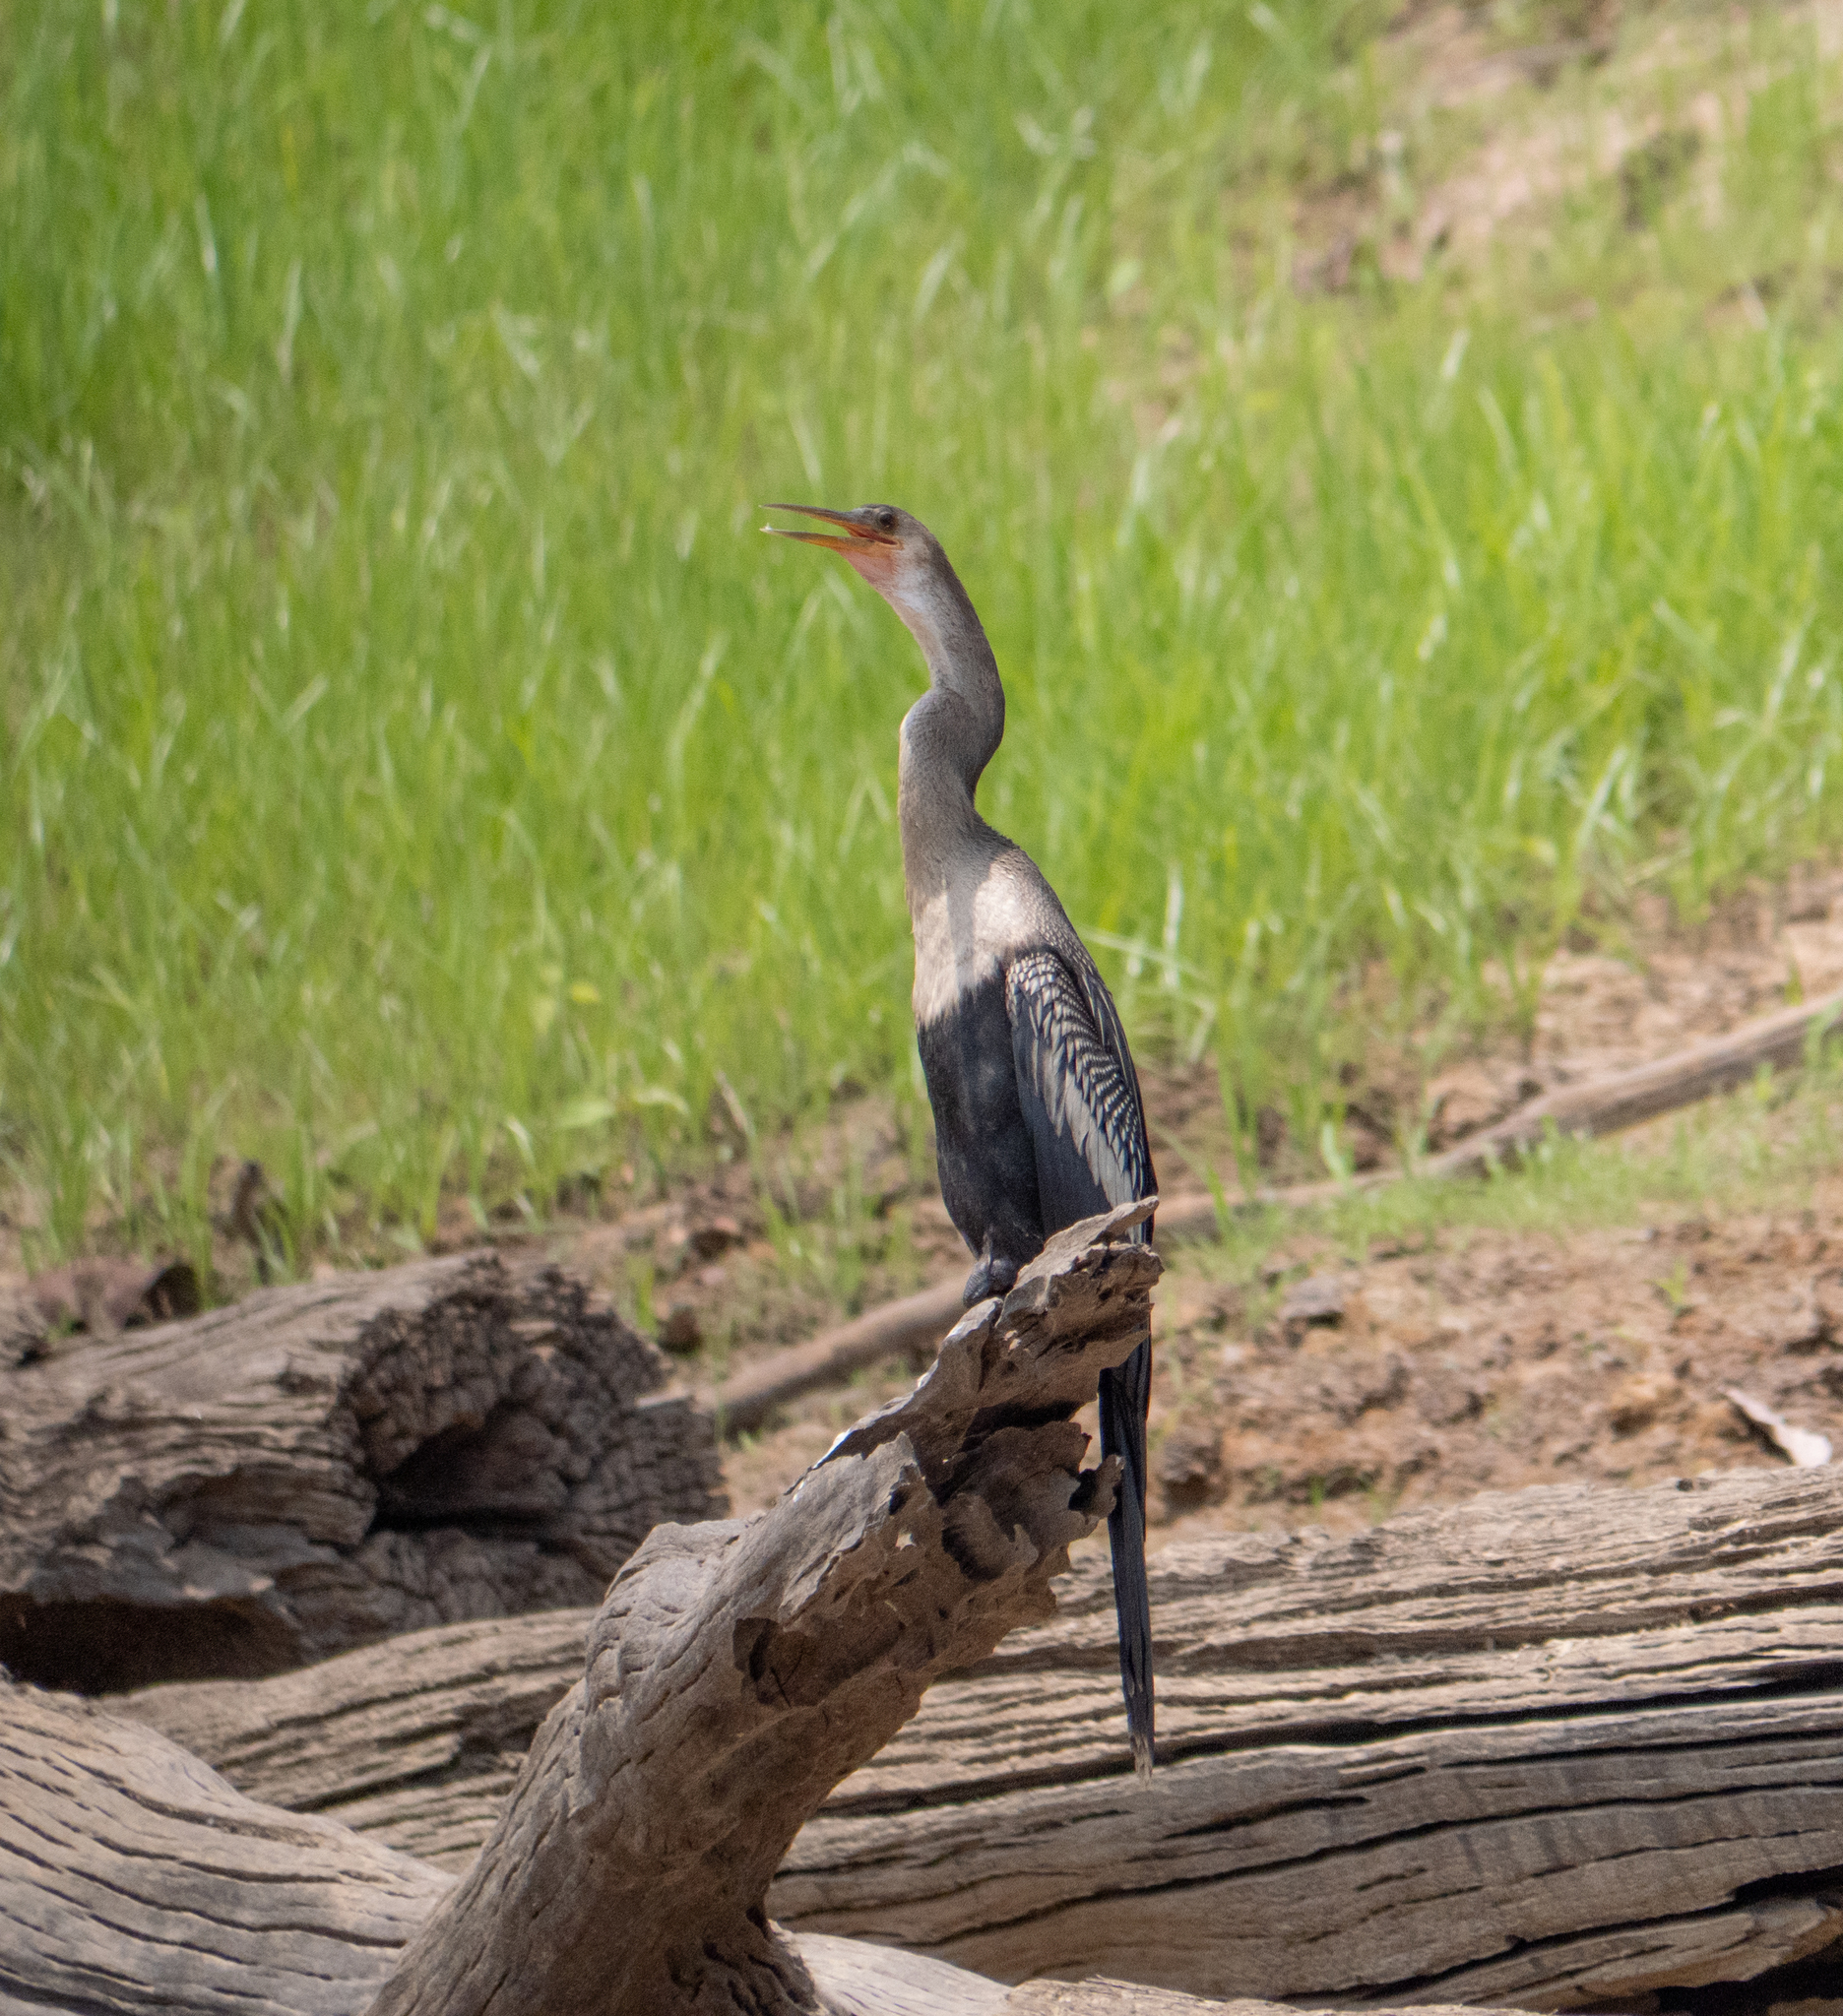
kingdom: Animalia
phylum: Chordata
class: Aves
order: Suliformes
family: Anhingidae
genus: Anhinga
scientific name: Anhinga anhinga
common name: Anhinga
